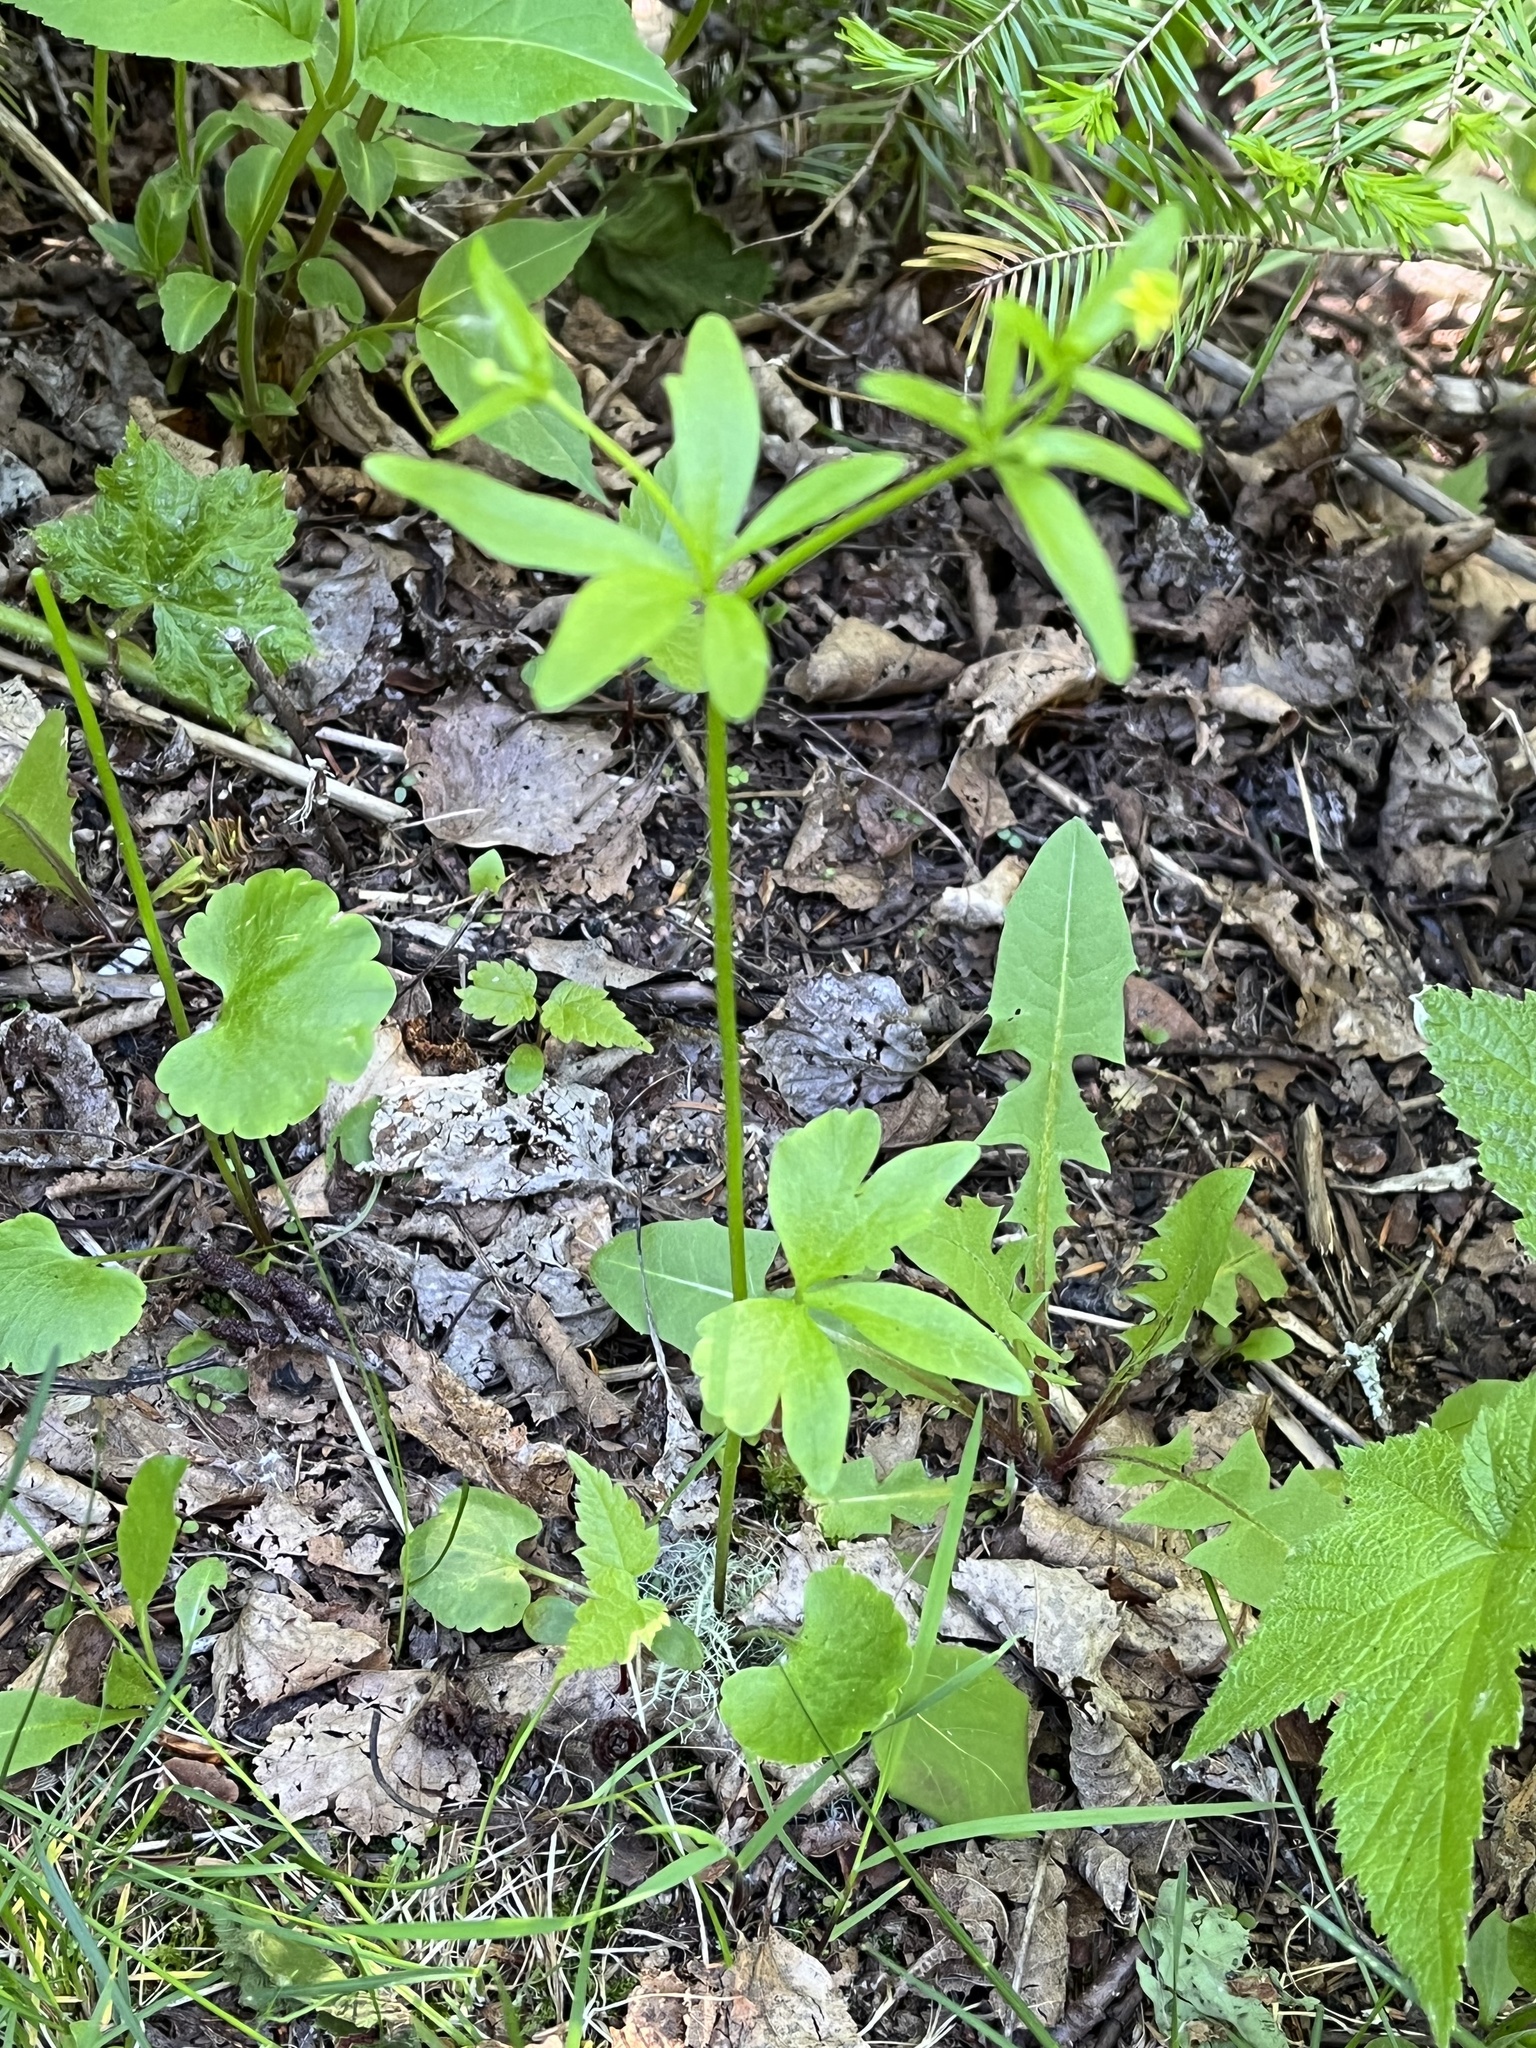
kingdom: Plantae
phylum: Tracheophyta
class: Magnoliopsida
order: Ranunculales
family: Ranunculaceae
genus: Ranunculus
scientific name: Ranunculus abortivus
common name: Early wood buttercup
